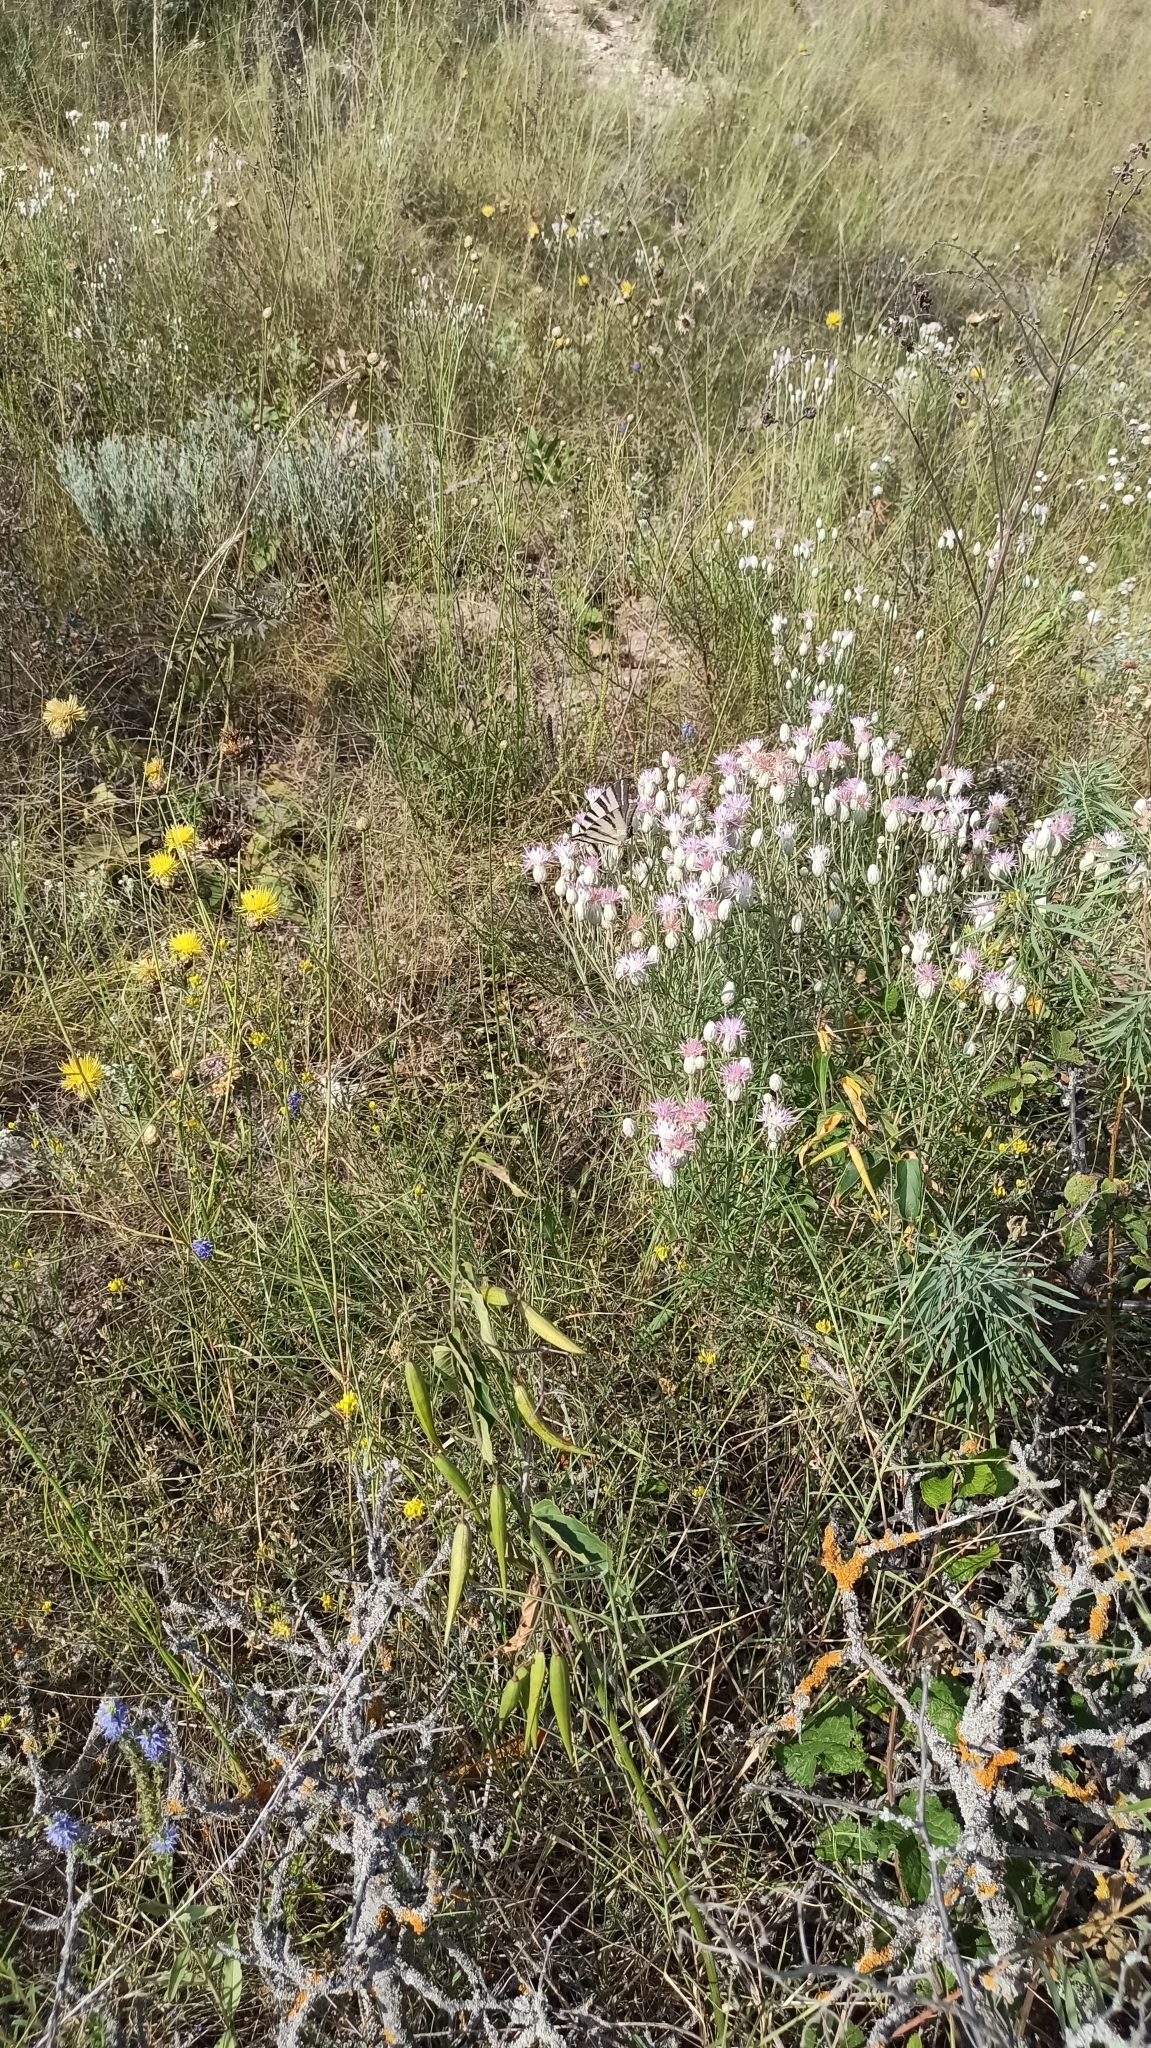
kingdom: Animalia
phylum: Arthropoda
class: Insecta
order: Lepidoptera
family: Papilionidae
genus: Iphiclides
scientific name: Iphiclides podalirius
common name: Scarce swallowtail
